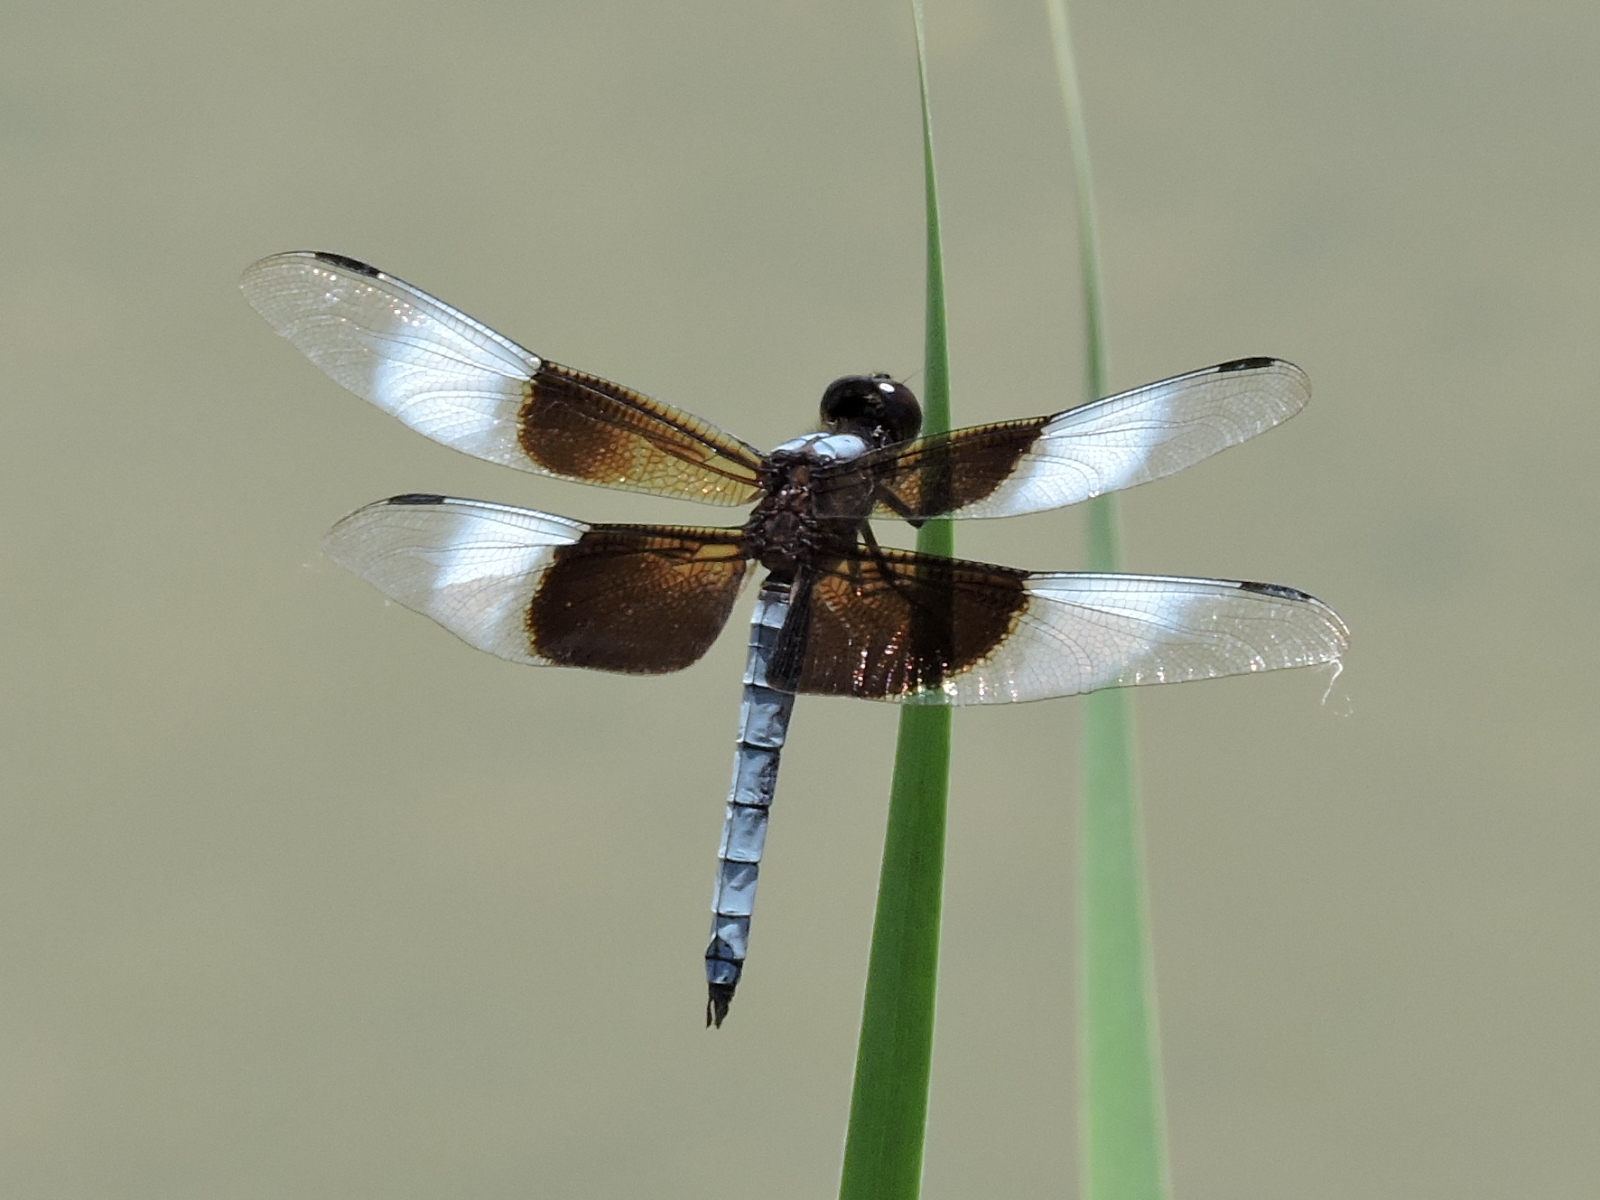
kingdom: Animalia
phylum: Arthropoda
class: Insecta
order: Odonata
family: Libellulidae
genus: Libellula
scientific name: Libellula luctuosa
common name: Widow skimmer
